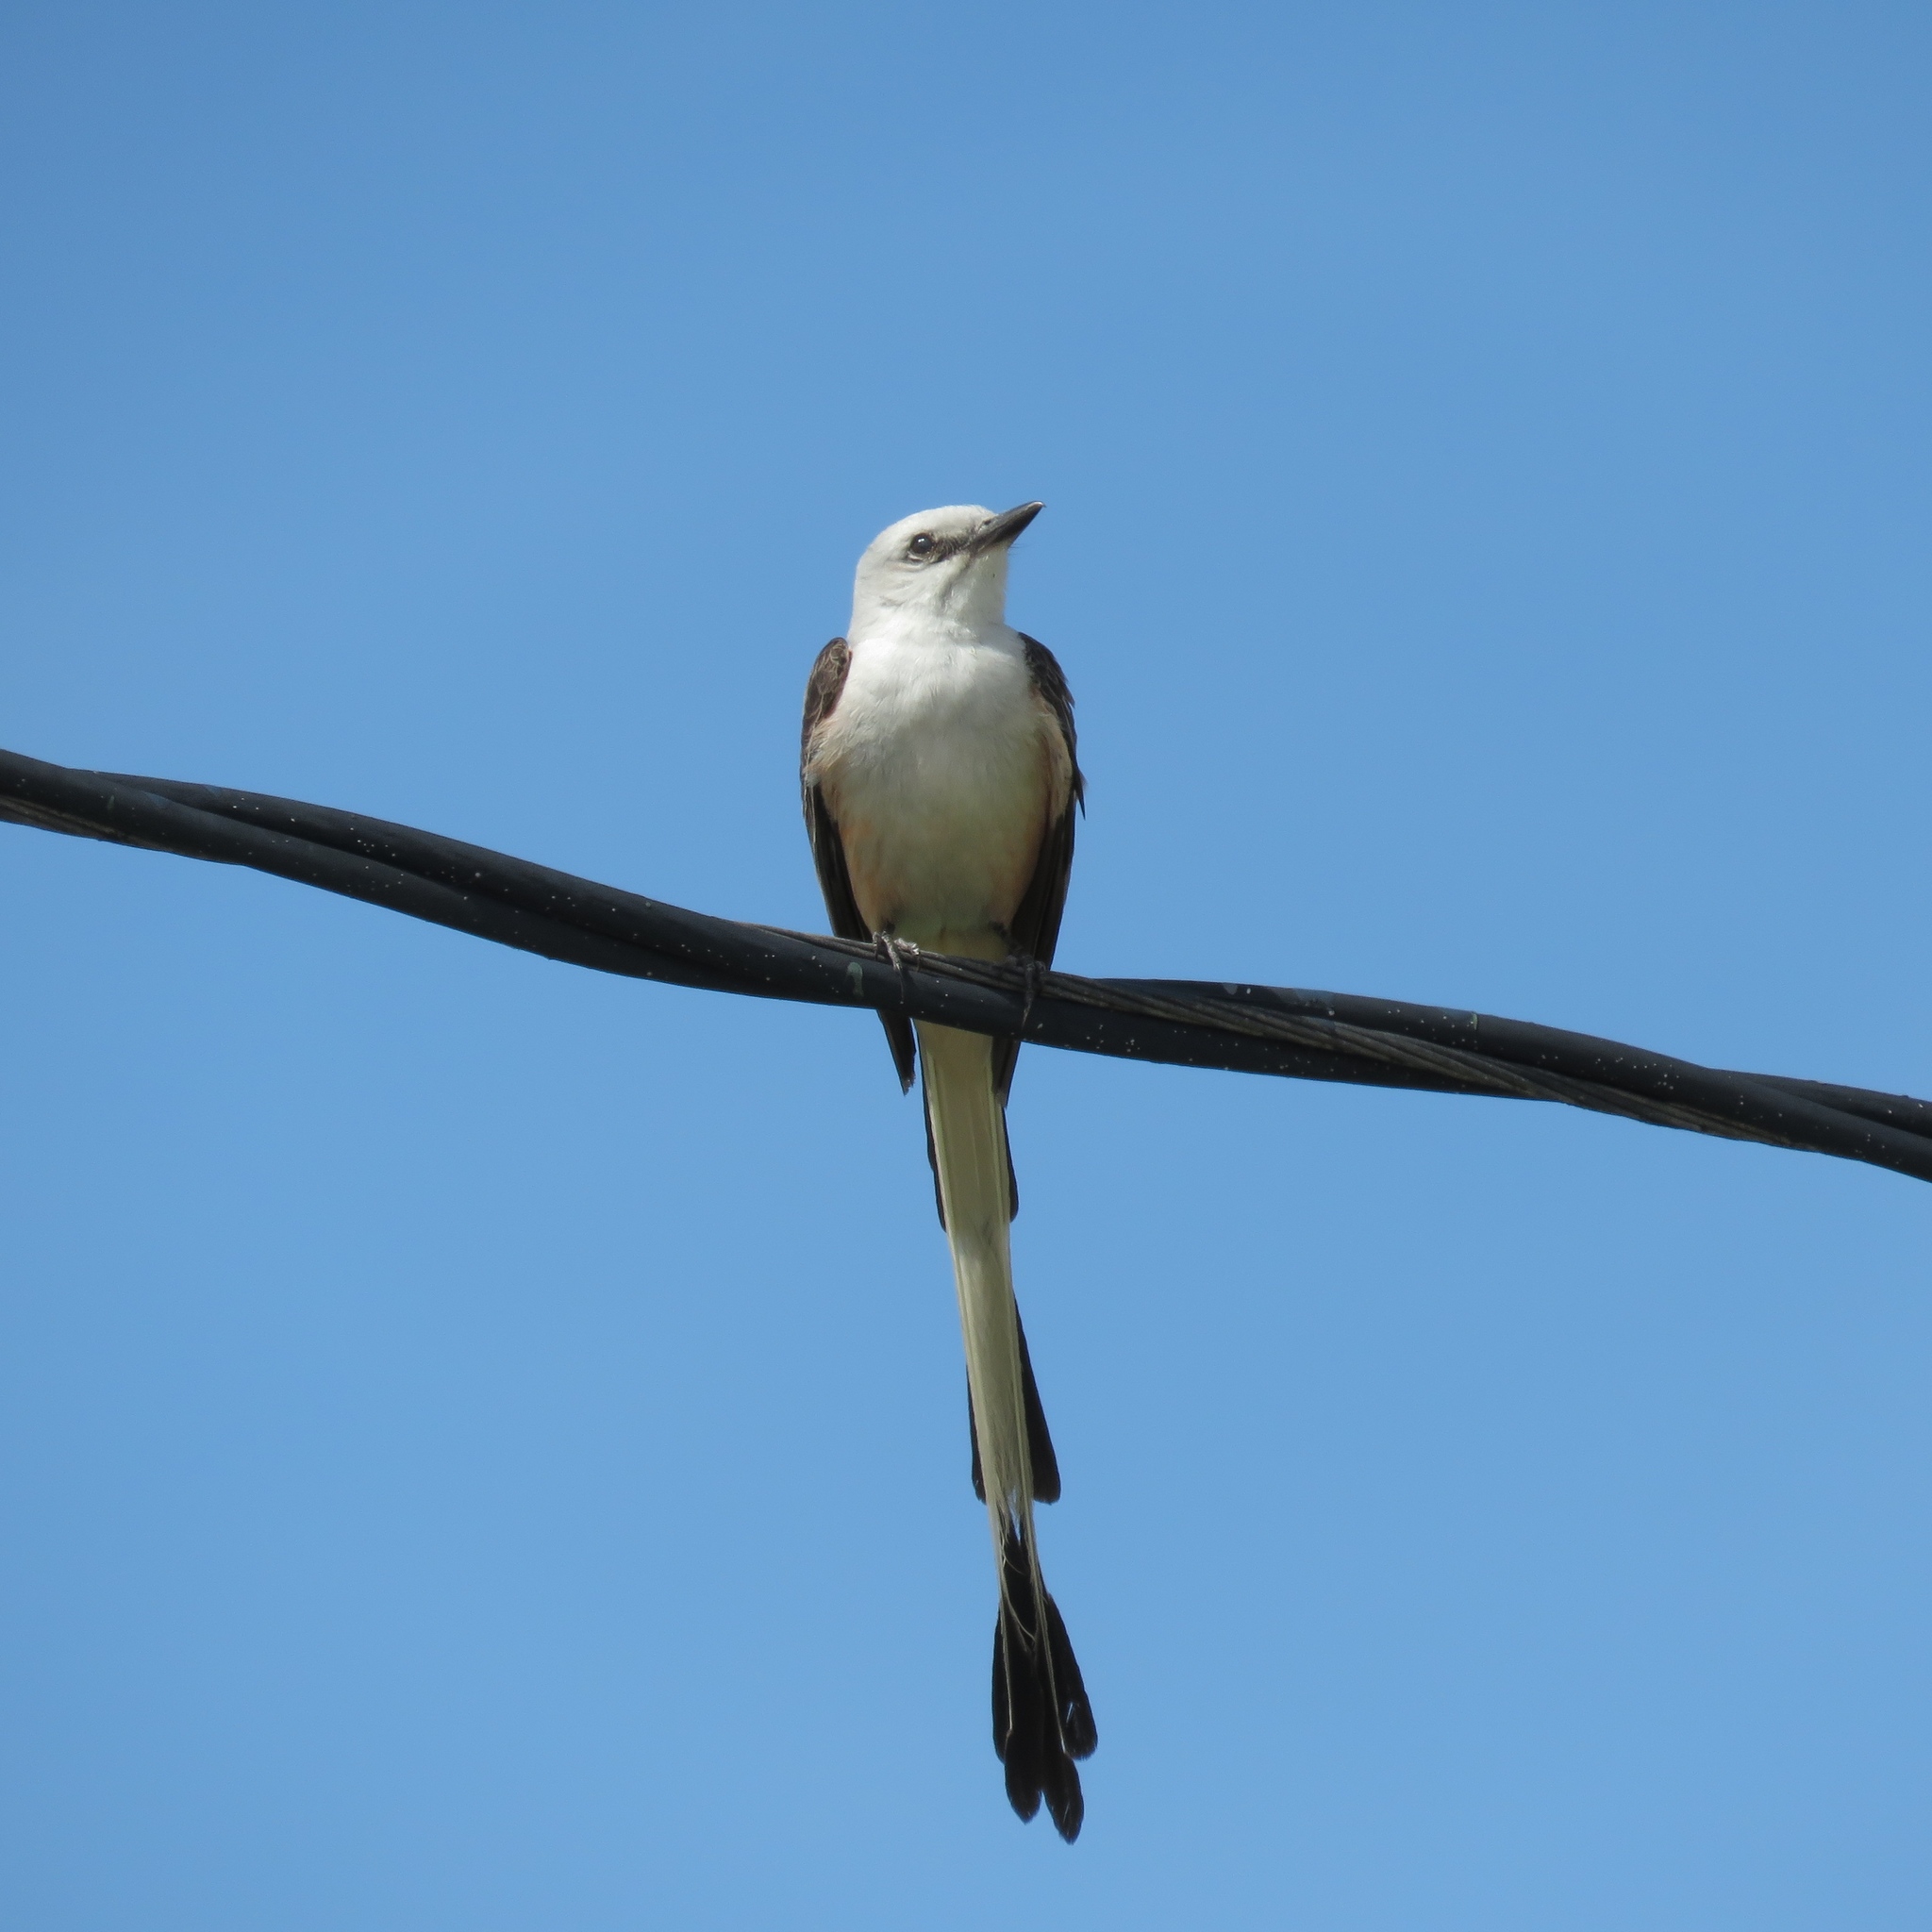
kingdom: Animalia
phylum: Chordata
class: Aves
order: Passeriformes
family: Tyrannidae
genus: Tyrannus
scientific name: Tyrannus forficatus
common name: Scissor-tailed flycatcher
